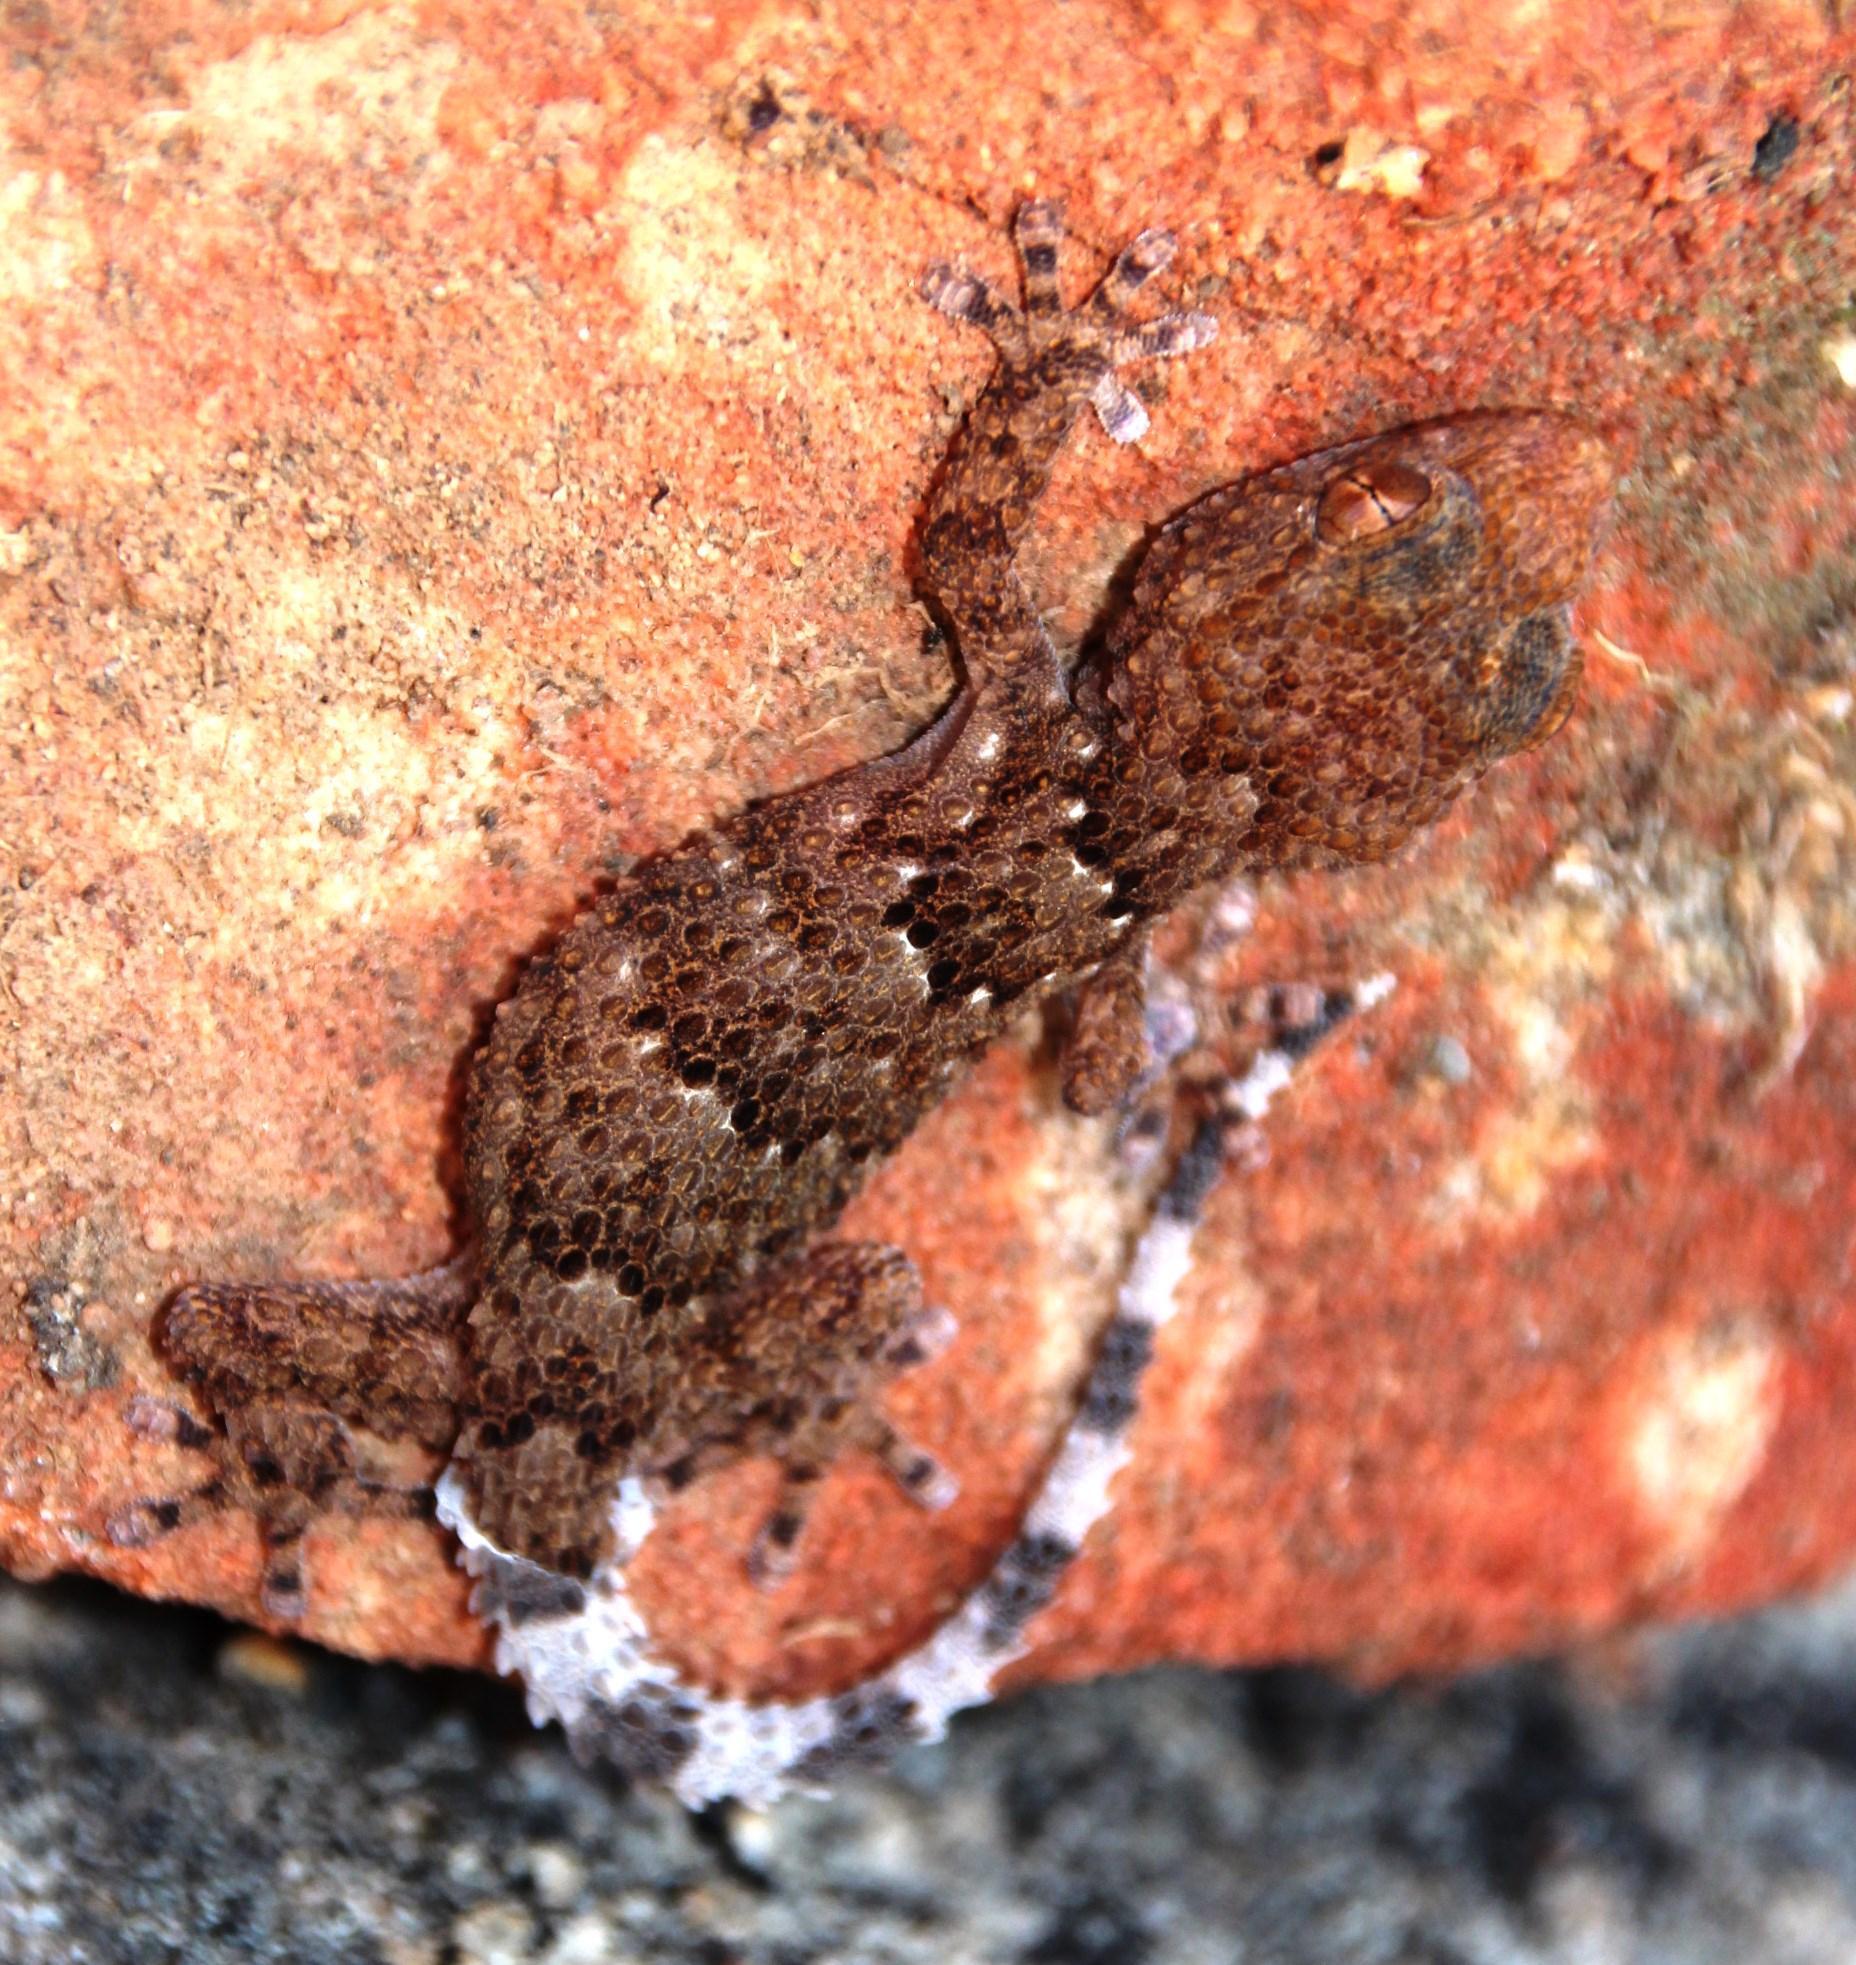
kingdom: Animalia
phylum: Chordata
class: Squamata
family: Gekkonidae
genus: Chondrodactylus
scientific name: Chondrodactylus bibronii
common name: Bibron's gecko
